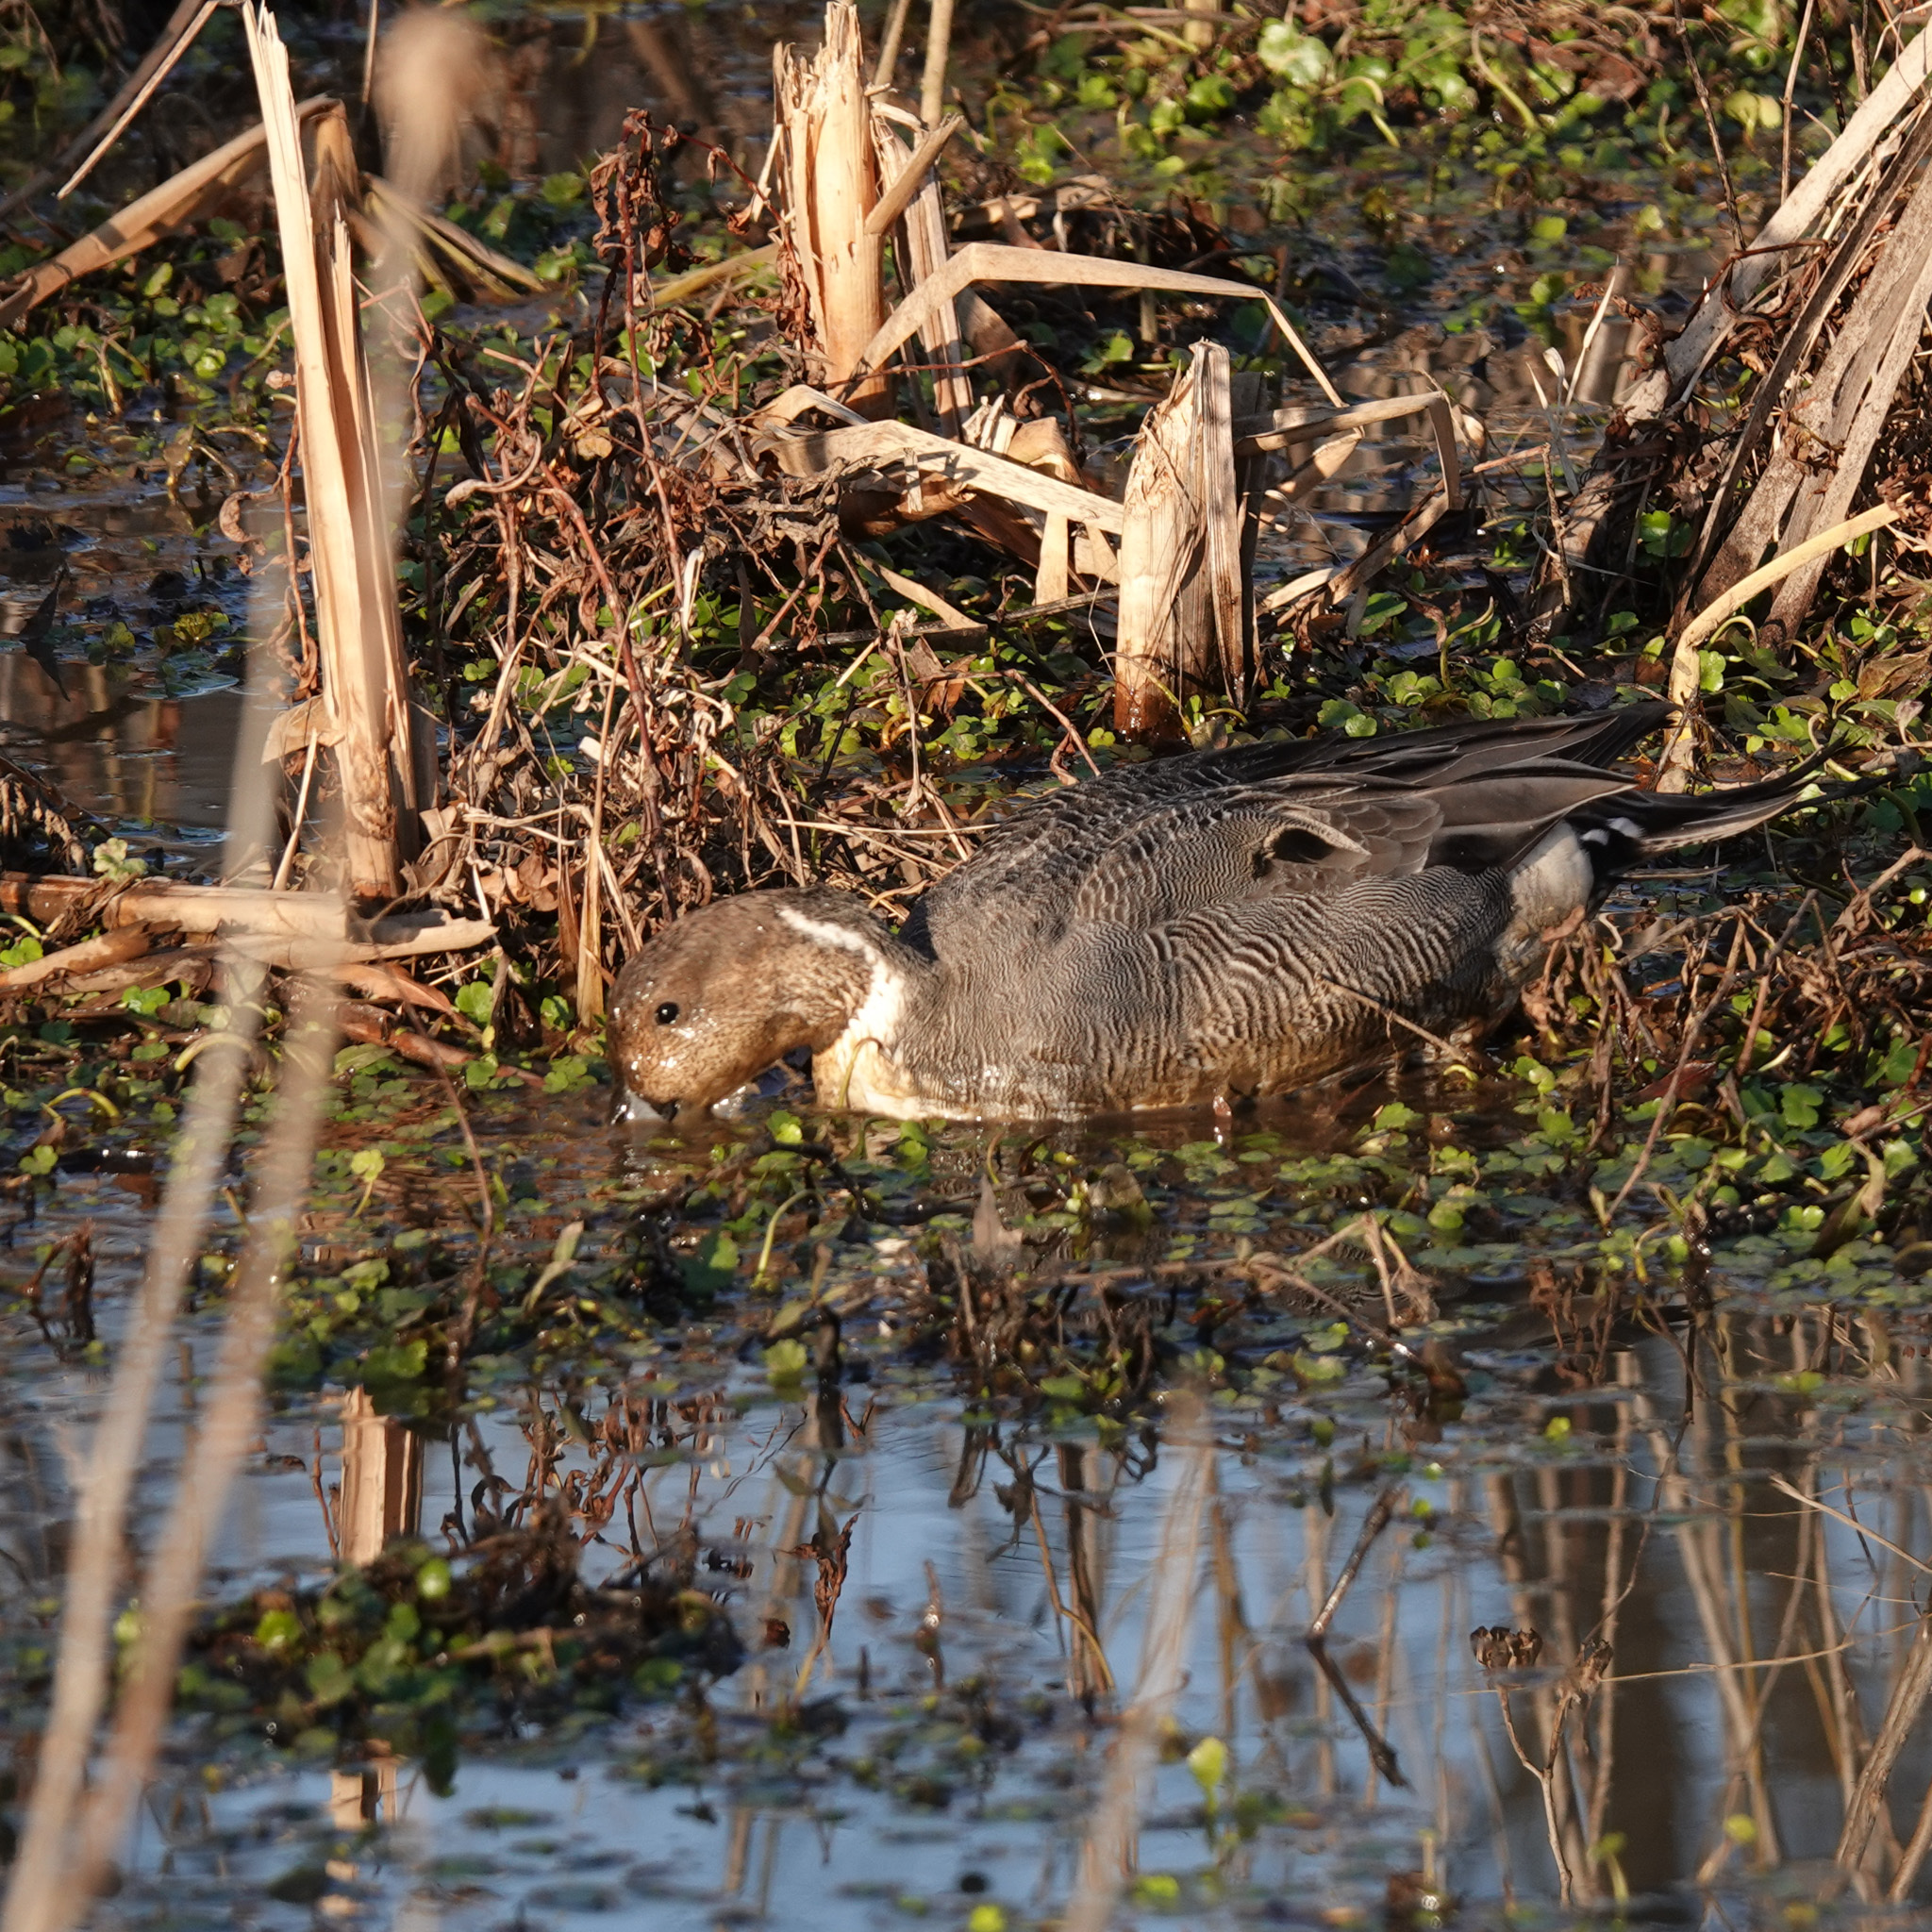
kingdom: Animalia
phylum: Chordata
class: Aves
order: Anseriformes
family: Anatidae
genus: Anas
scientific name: Anas acuta
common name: Northern pintail
